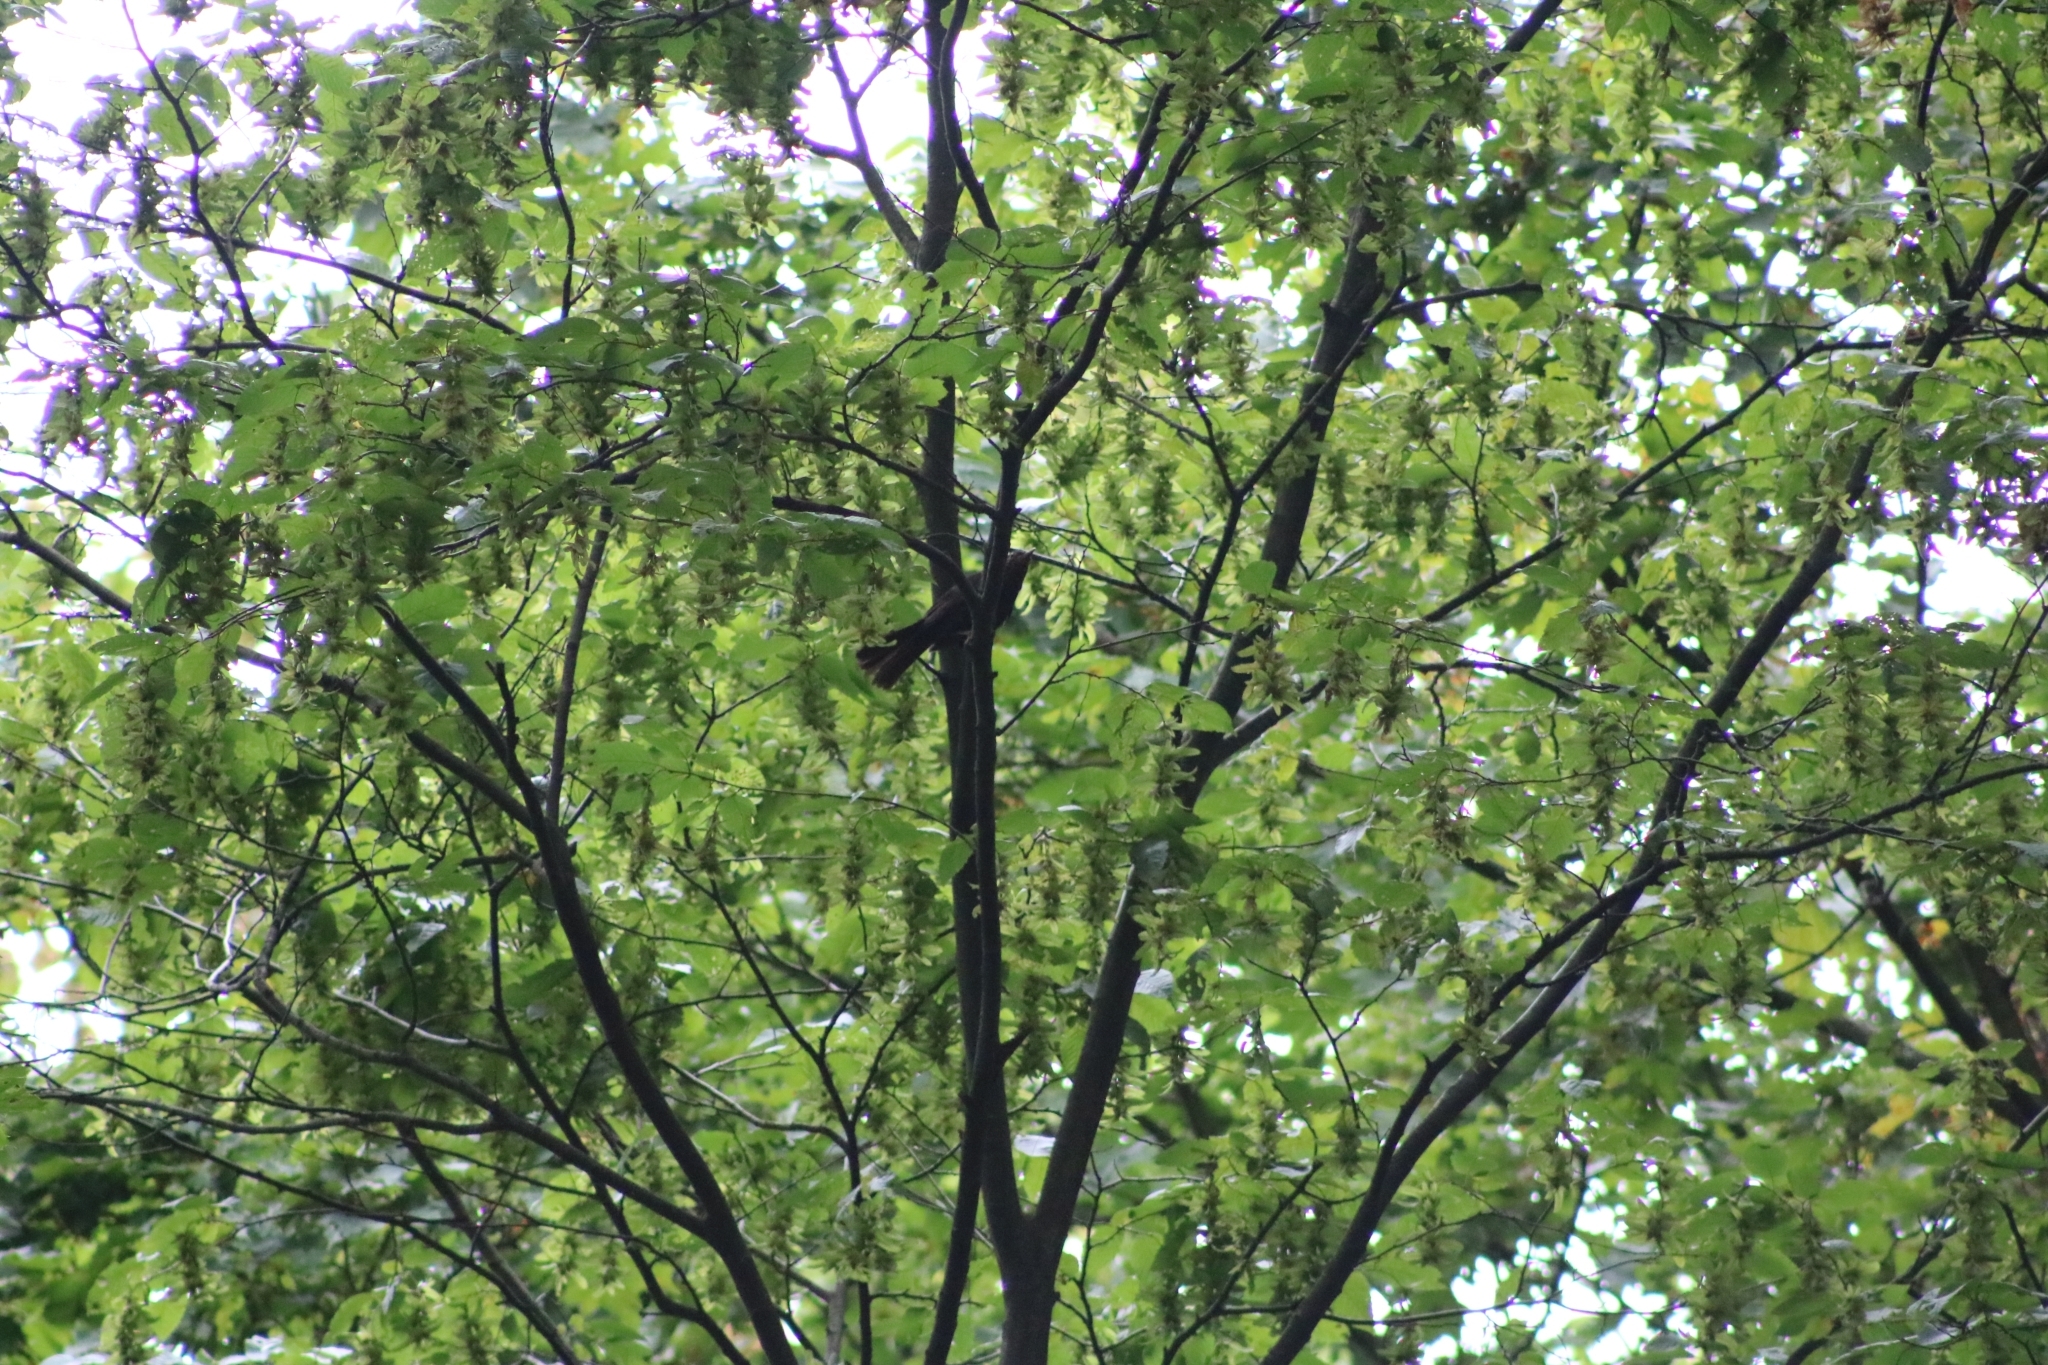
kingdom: Animalia
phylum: Chordata
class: Aves
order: Passeriformes
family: Turdidae
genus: Turdus
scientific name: Turdus merula
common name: Common blackbird
